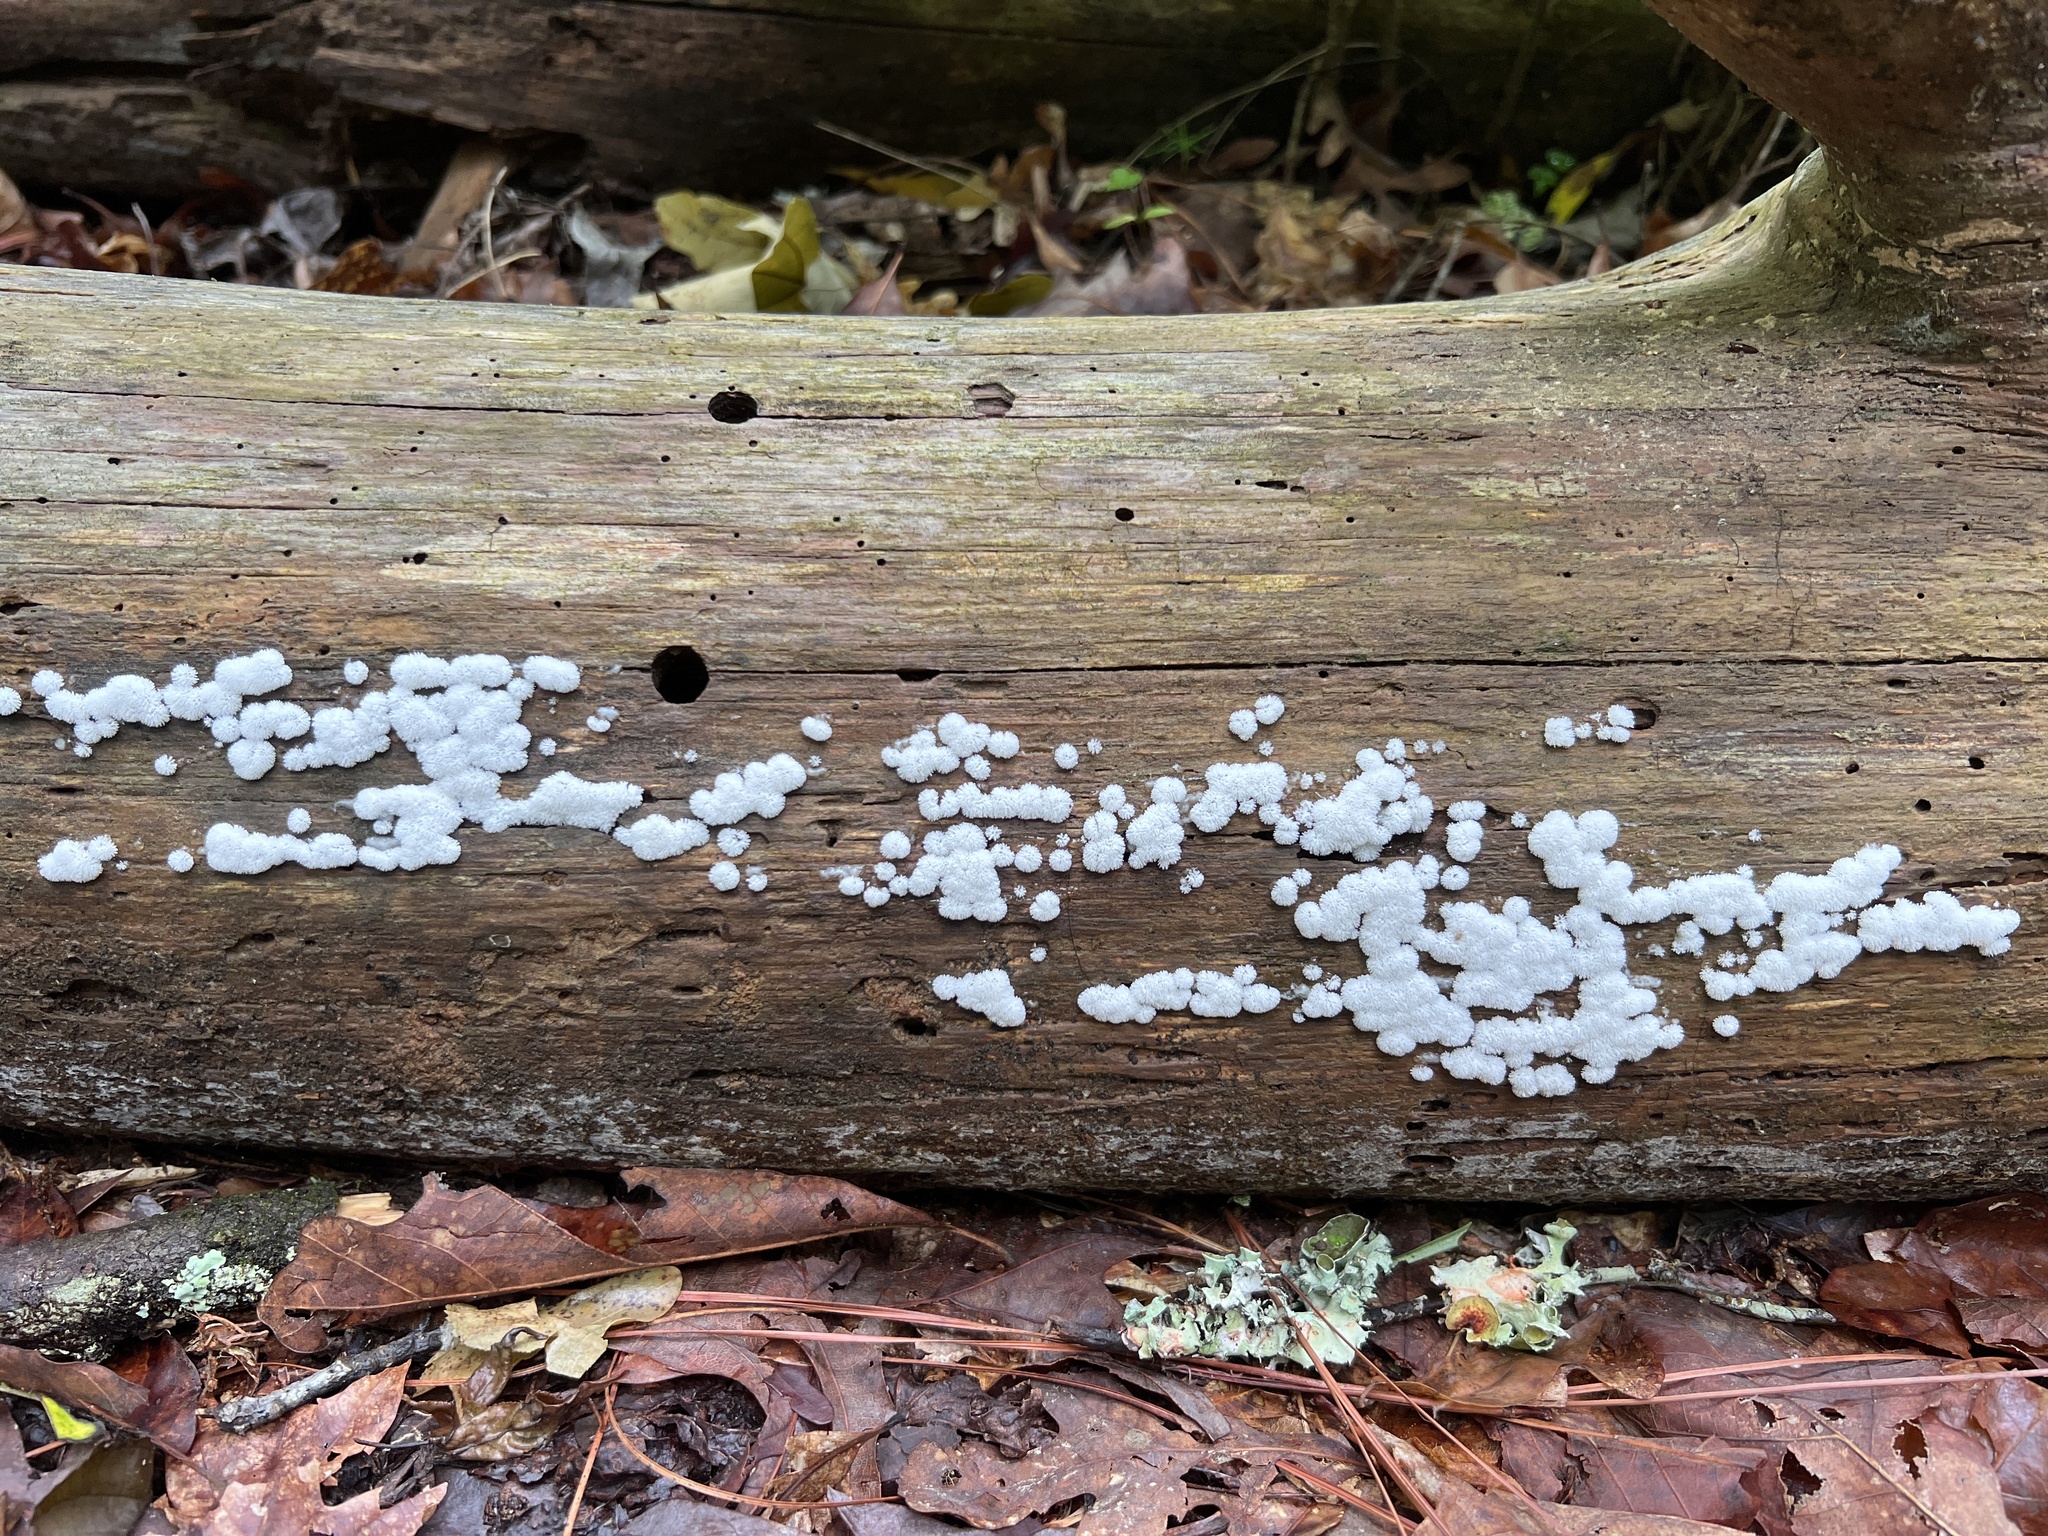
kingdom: Protozoa
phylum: Mycetozoa
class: Protosteliomycetes
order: Ceratiomyxales
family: Ceratiomyxaceae
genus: Ceratiomyxa
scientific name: Ceratiomyxa fruticulosa
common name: Honeycomb coral slime mold
